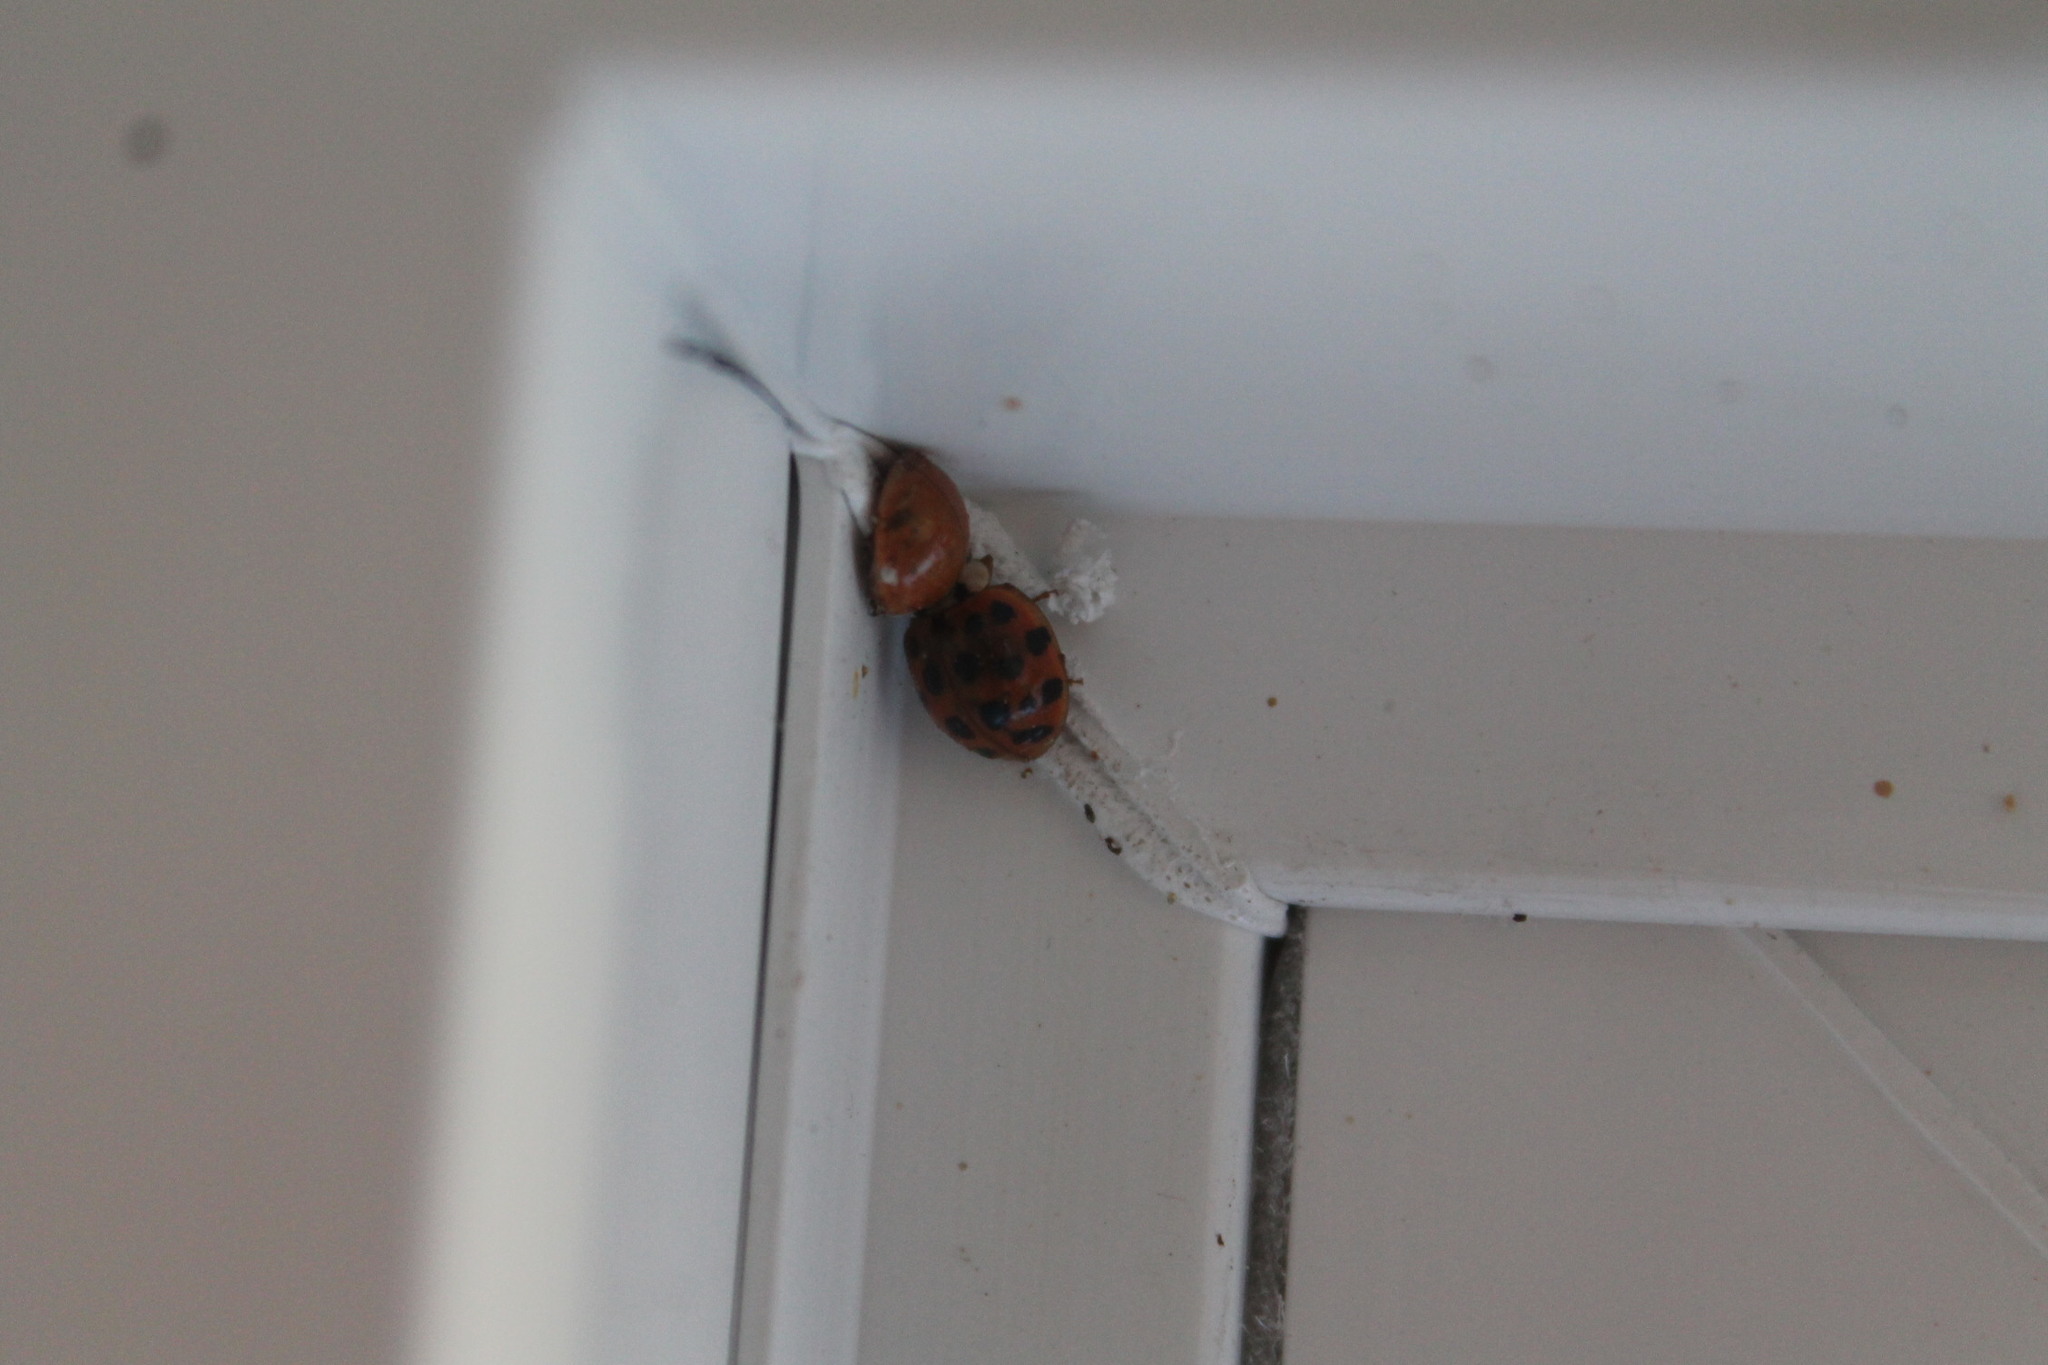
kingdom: Animalia
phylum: Arthropoda
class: Insecta
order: Coleoptera
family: Coccinellidae
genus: Harmonia
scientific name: Harmonia axyridis
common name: Harlequin ladybird
